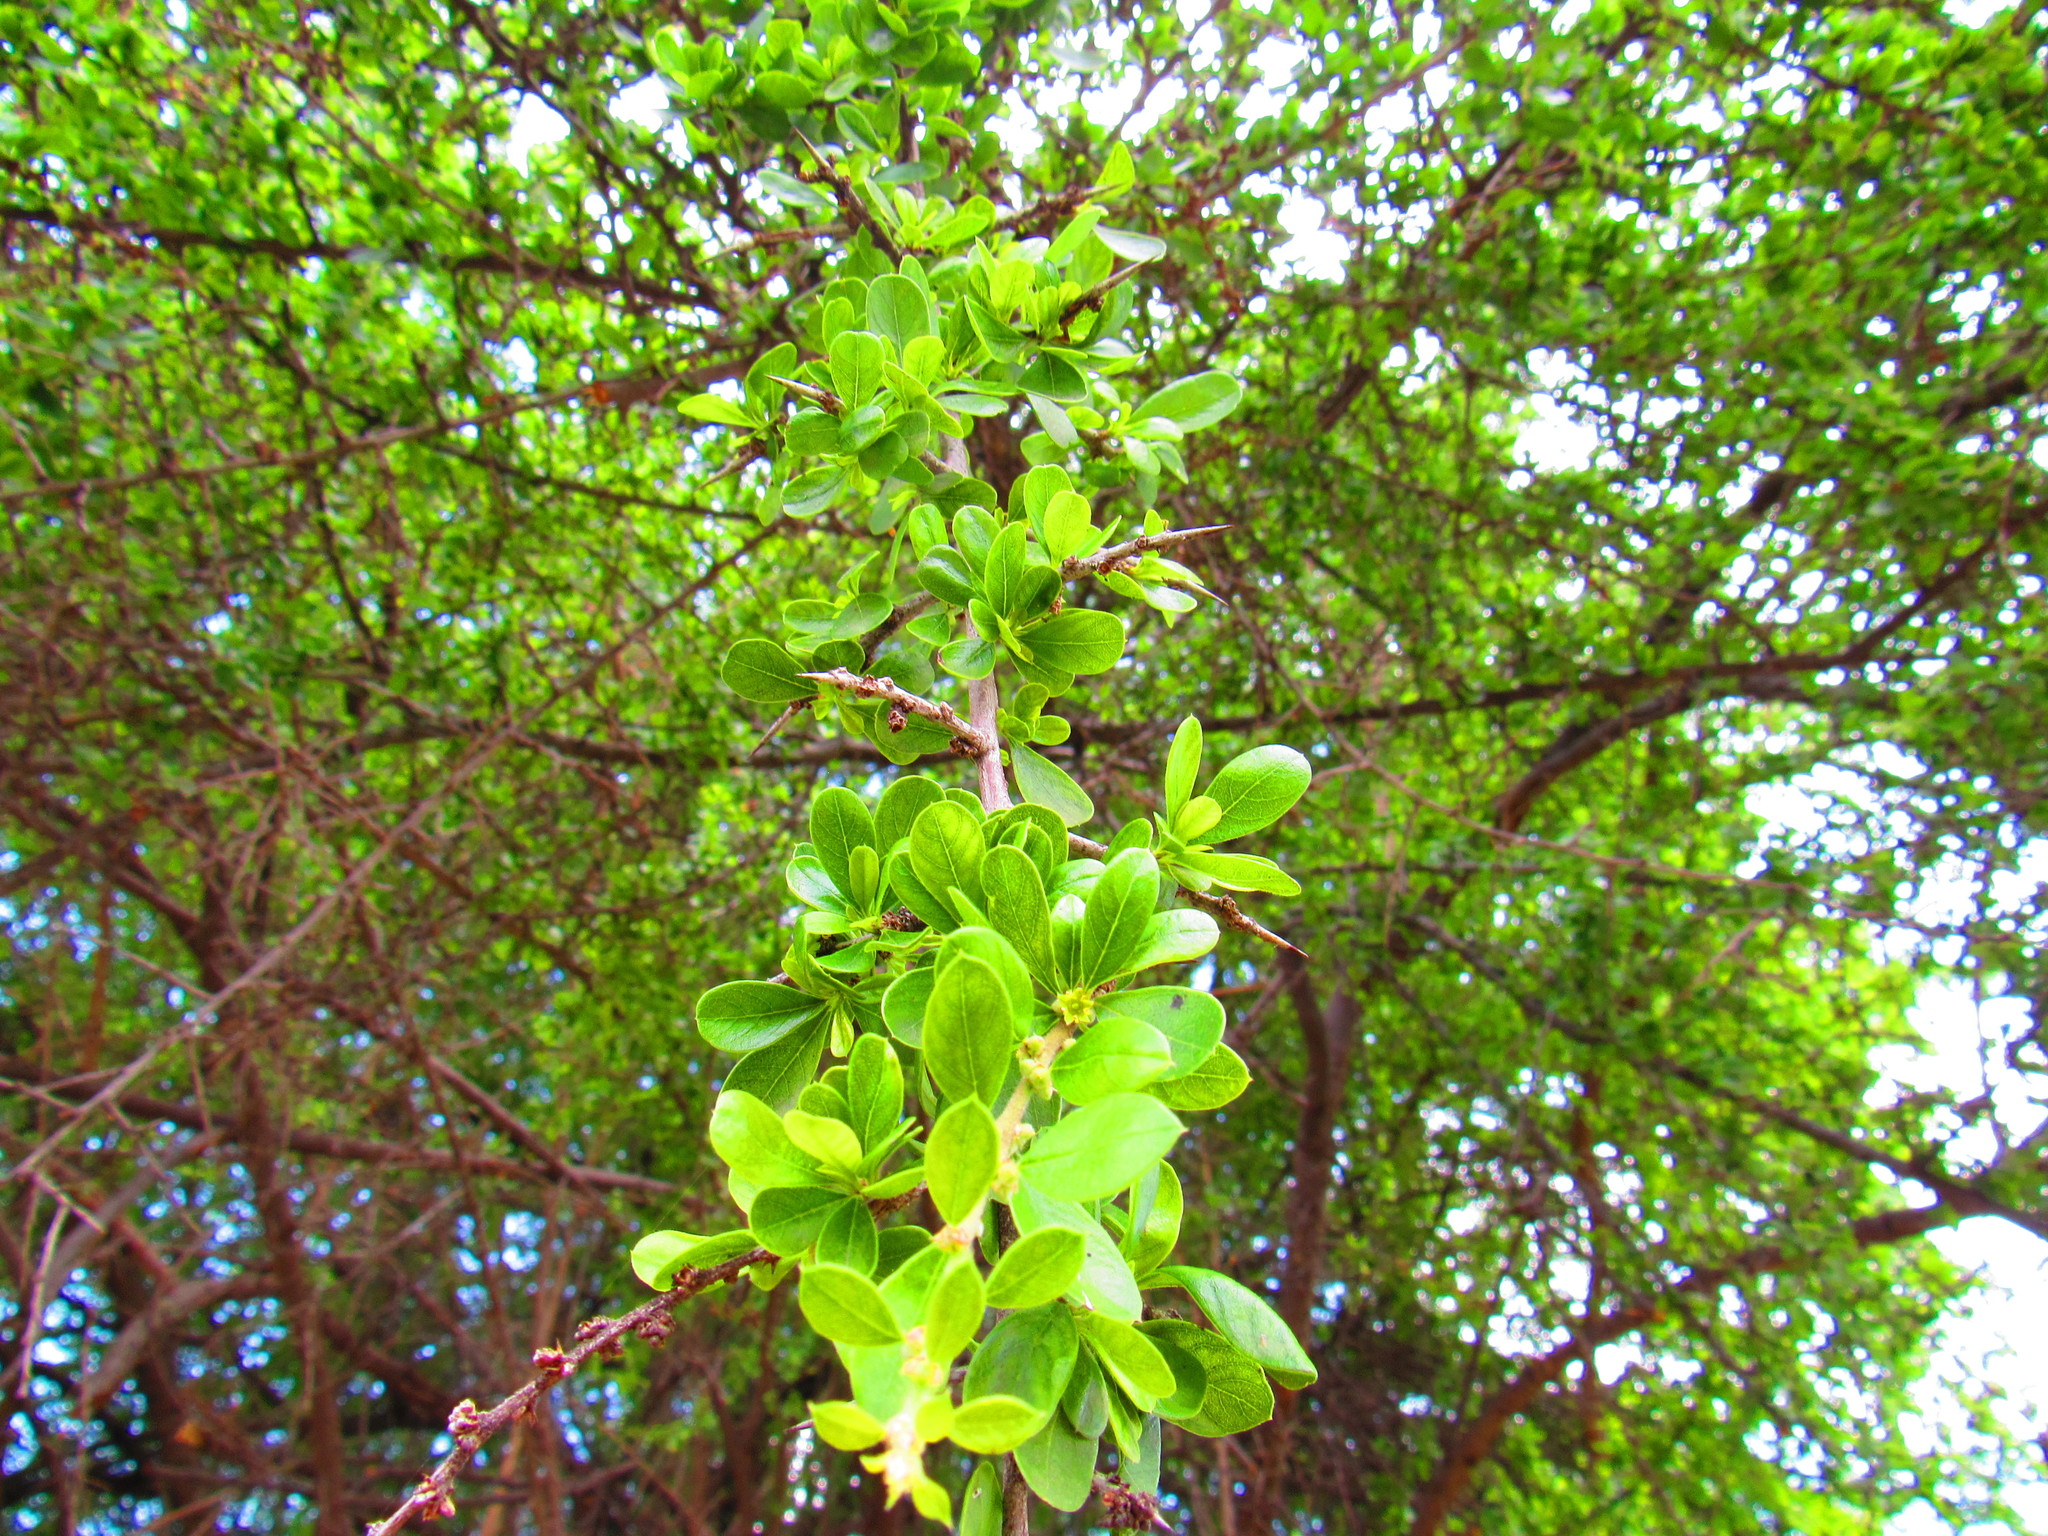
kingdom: Plantae
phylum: Tracheophyta
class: Magnoliopsida
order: Rosales
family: Cannabaceae
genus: Celtis
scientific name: Celtis pallida
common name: Desert hackberry
